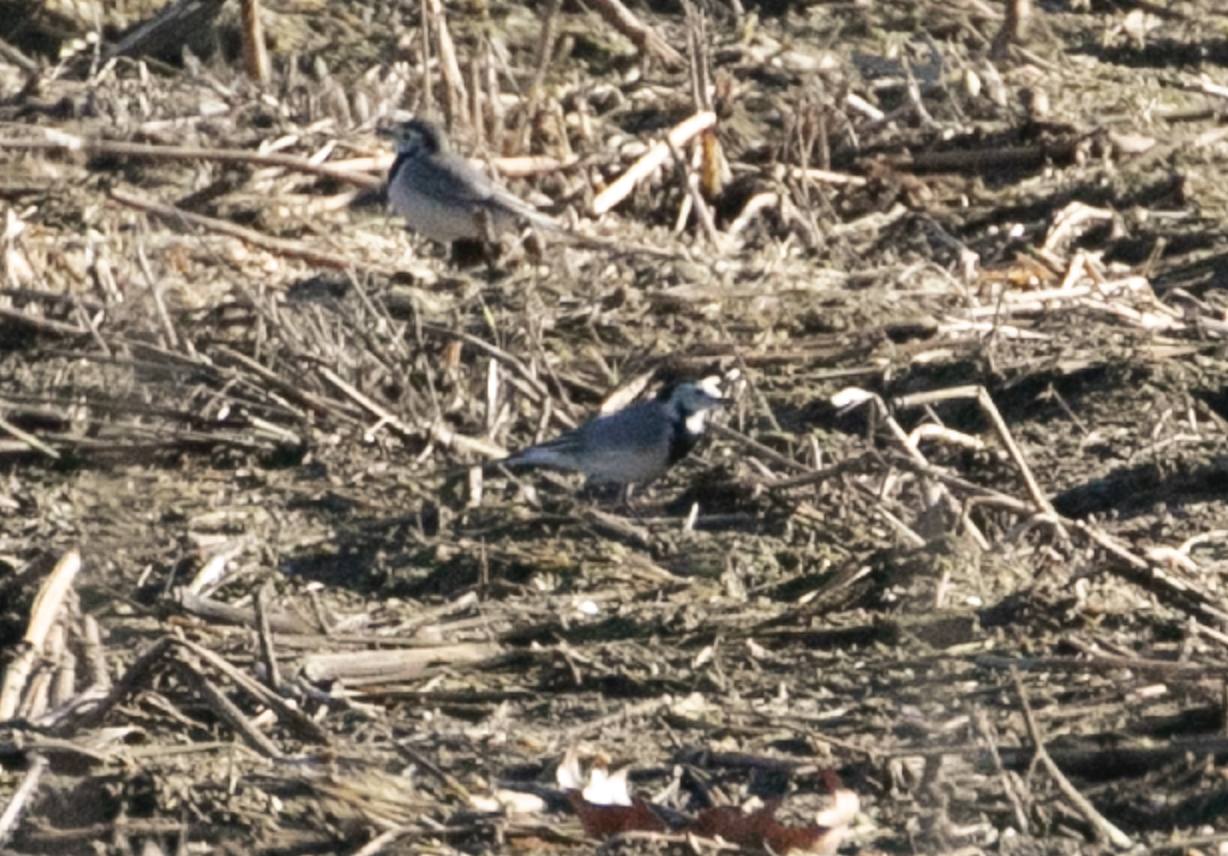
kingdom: Animalia
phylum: Chordata
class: Aves
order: Passeriformes
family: Motacillidae
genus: Motacilla
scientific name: Motacilla alba
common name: White wagtail
